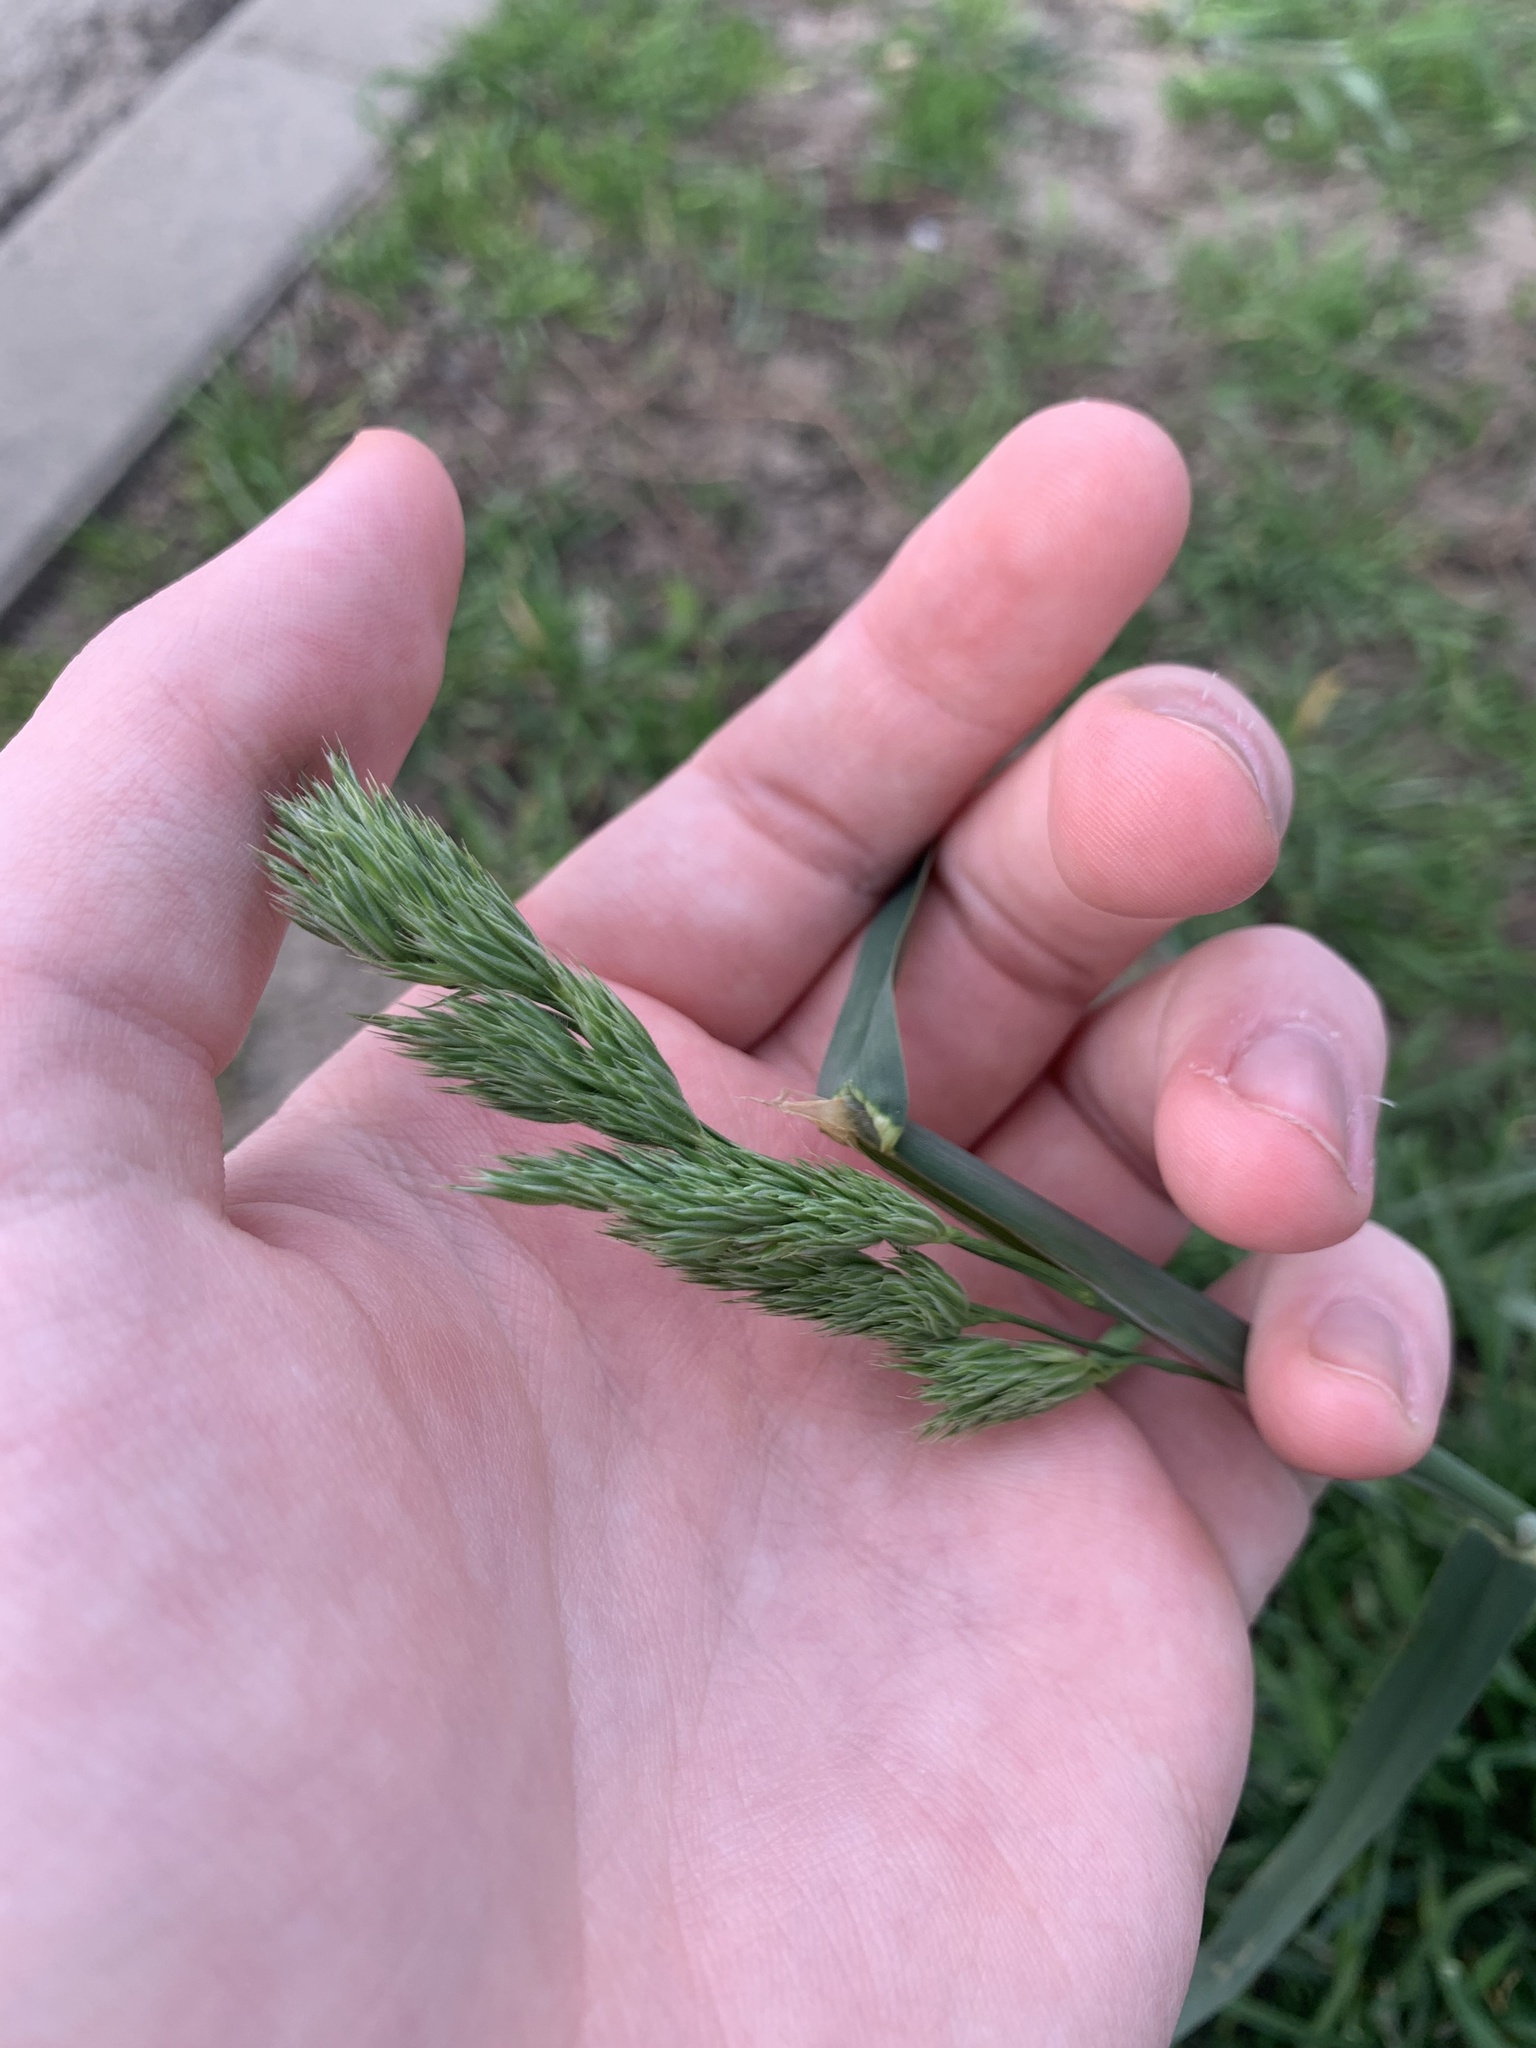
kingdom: Plantae
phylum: Tracheophyta
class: Liliopsida
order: Poales
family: Poaceae
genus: Dactylis
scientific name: Dactylis glomerata
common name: Orchardgrass
